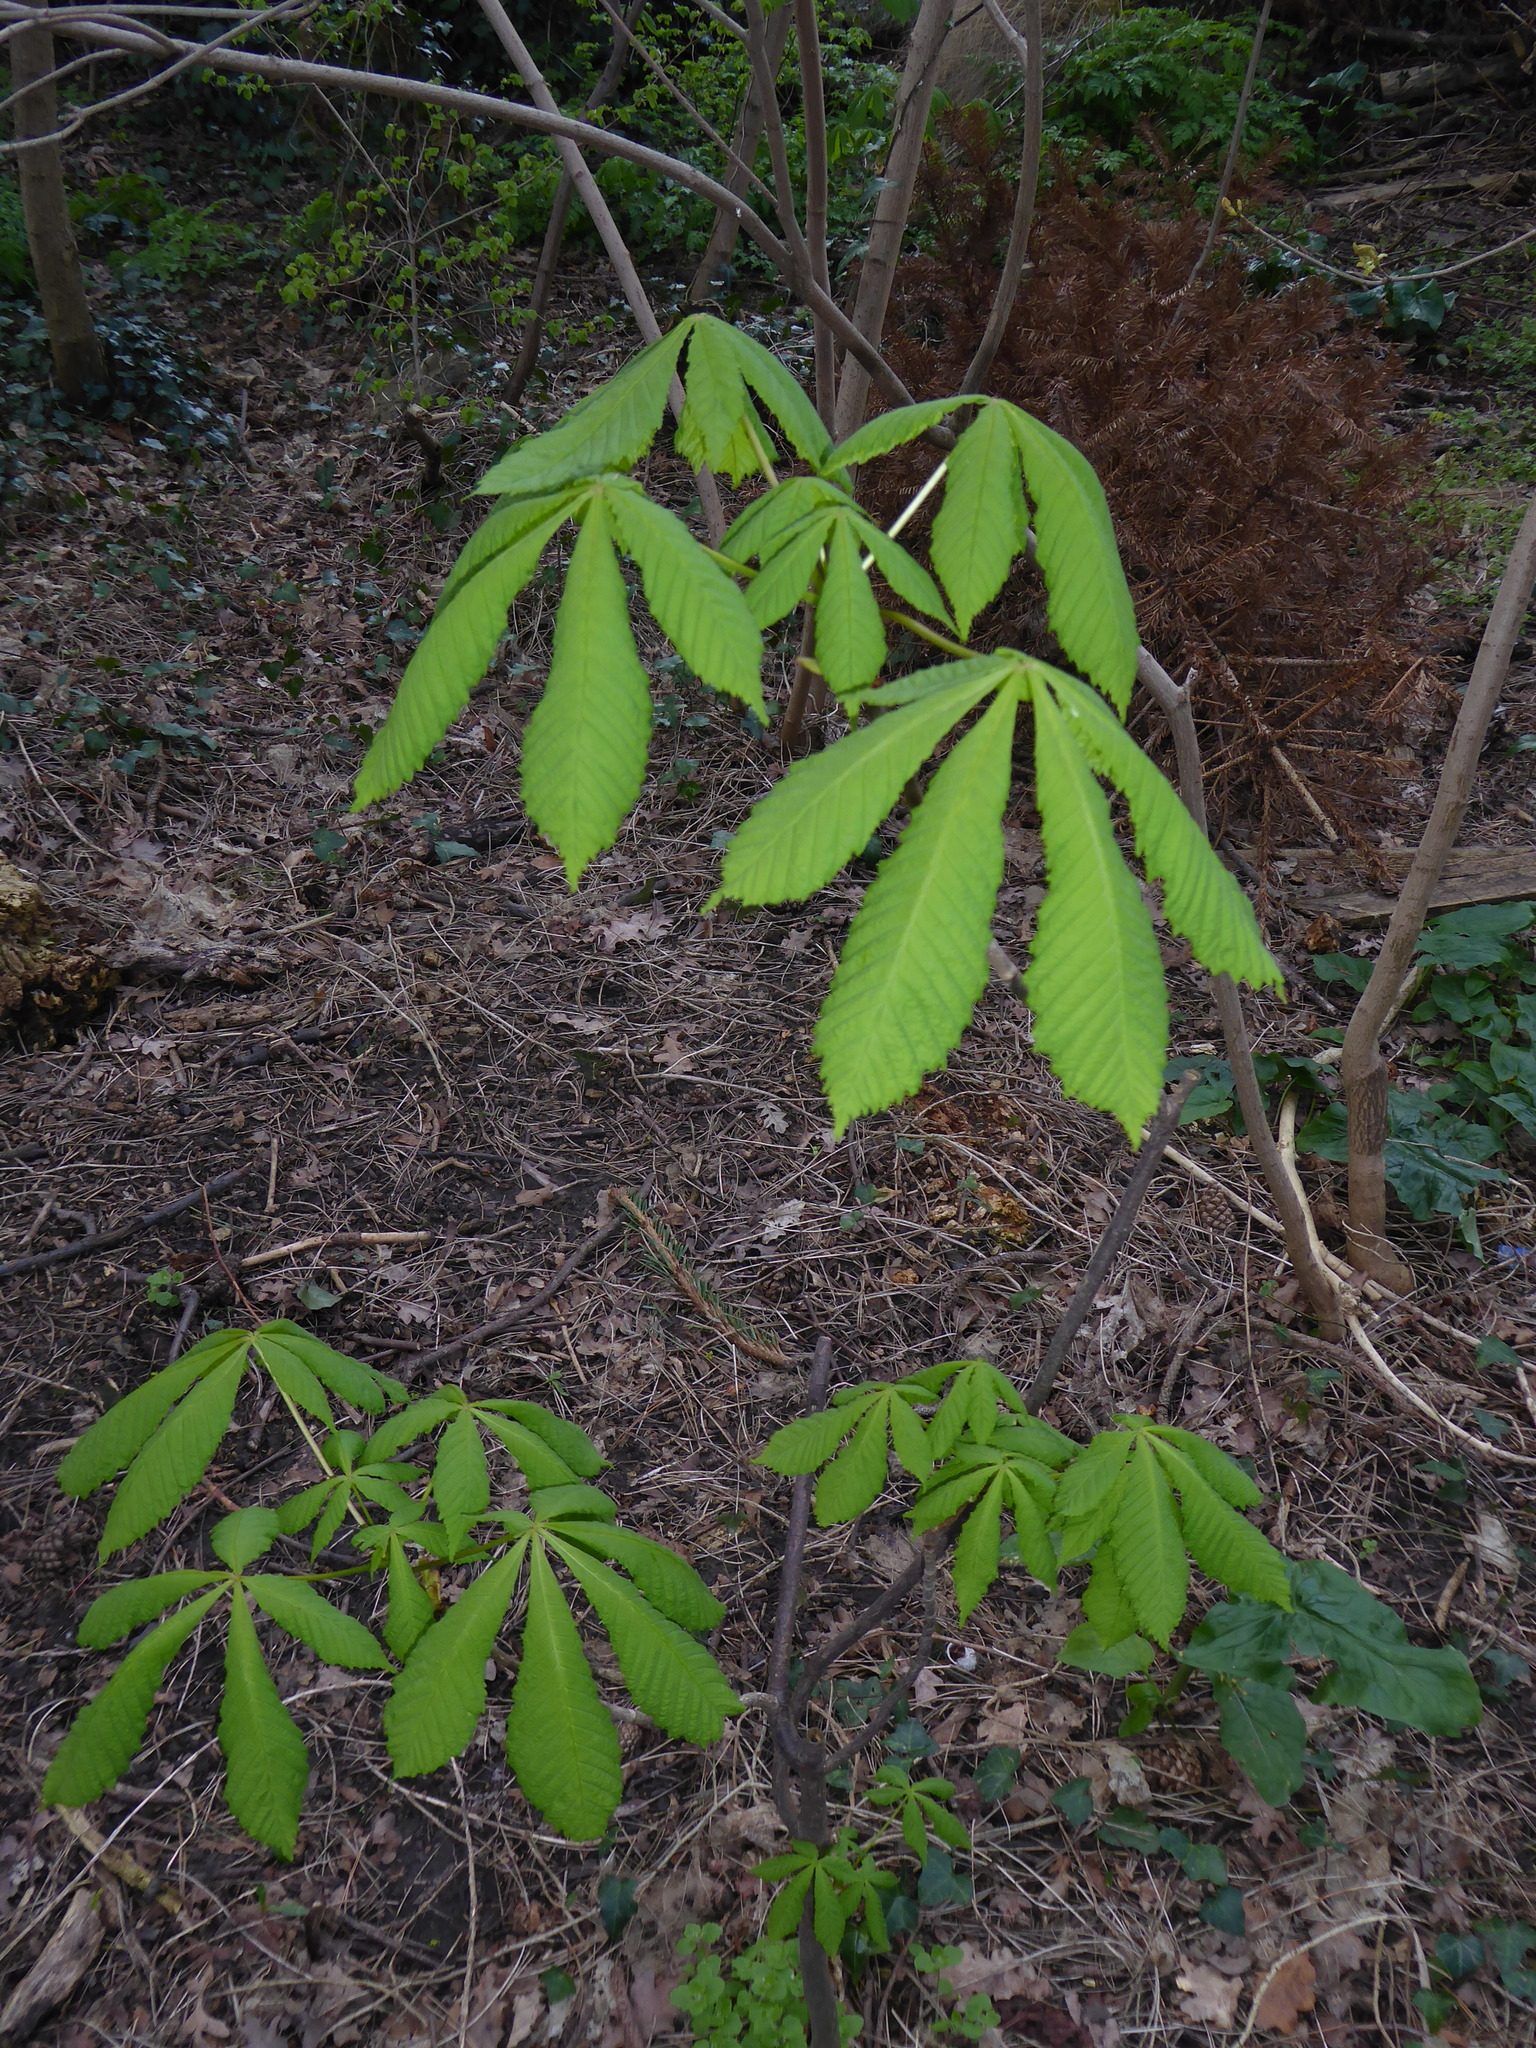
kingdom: Plantae
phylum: Tracheophyta
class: Magnoliopsida
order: Sapindales
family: Sapindaceae
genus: Aesculus
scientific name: Aesculus hippocastanum
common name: Horse-chestnut
